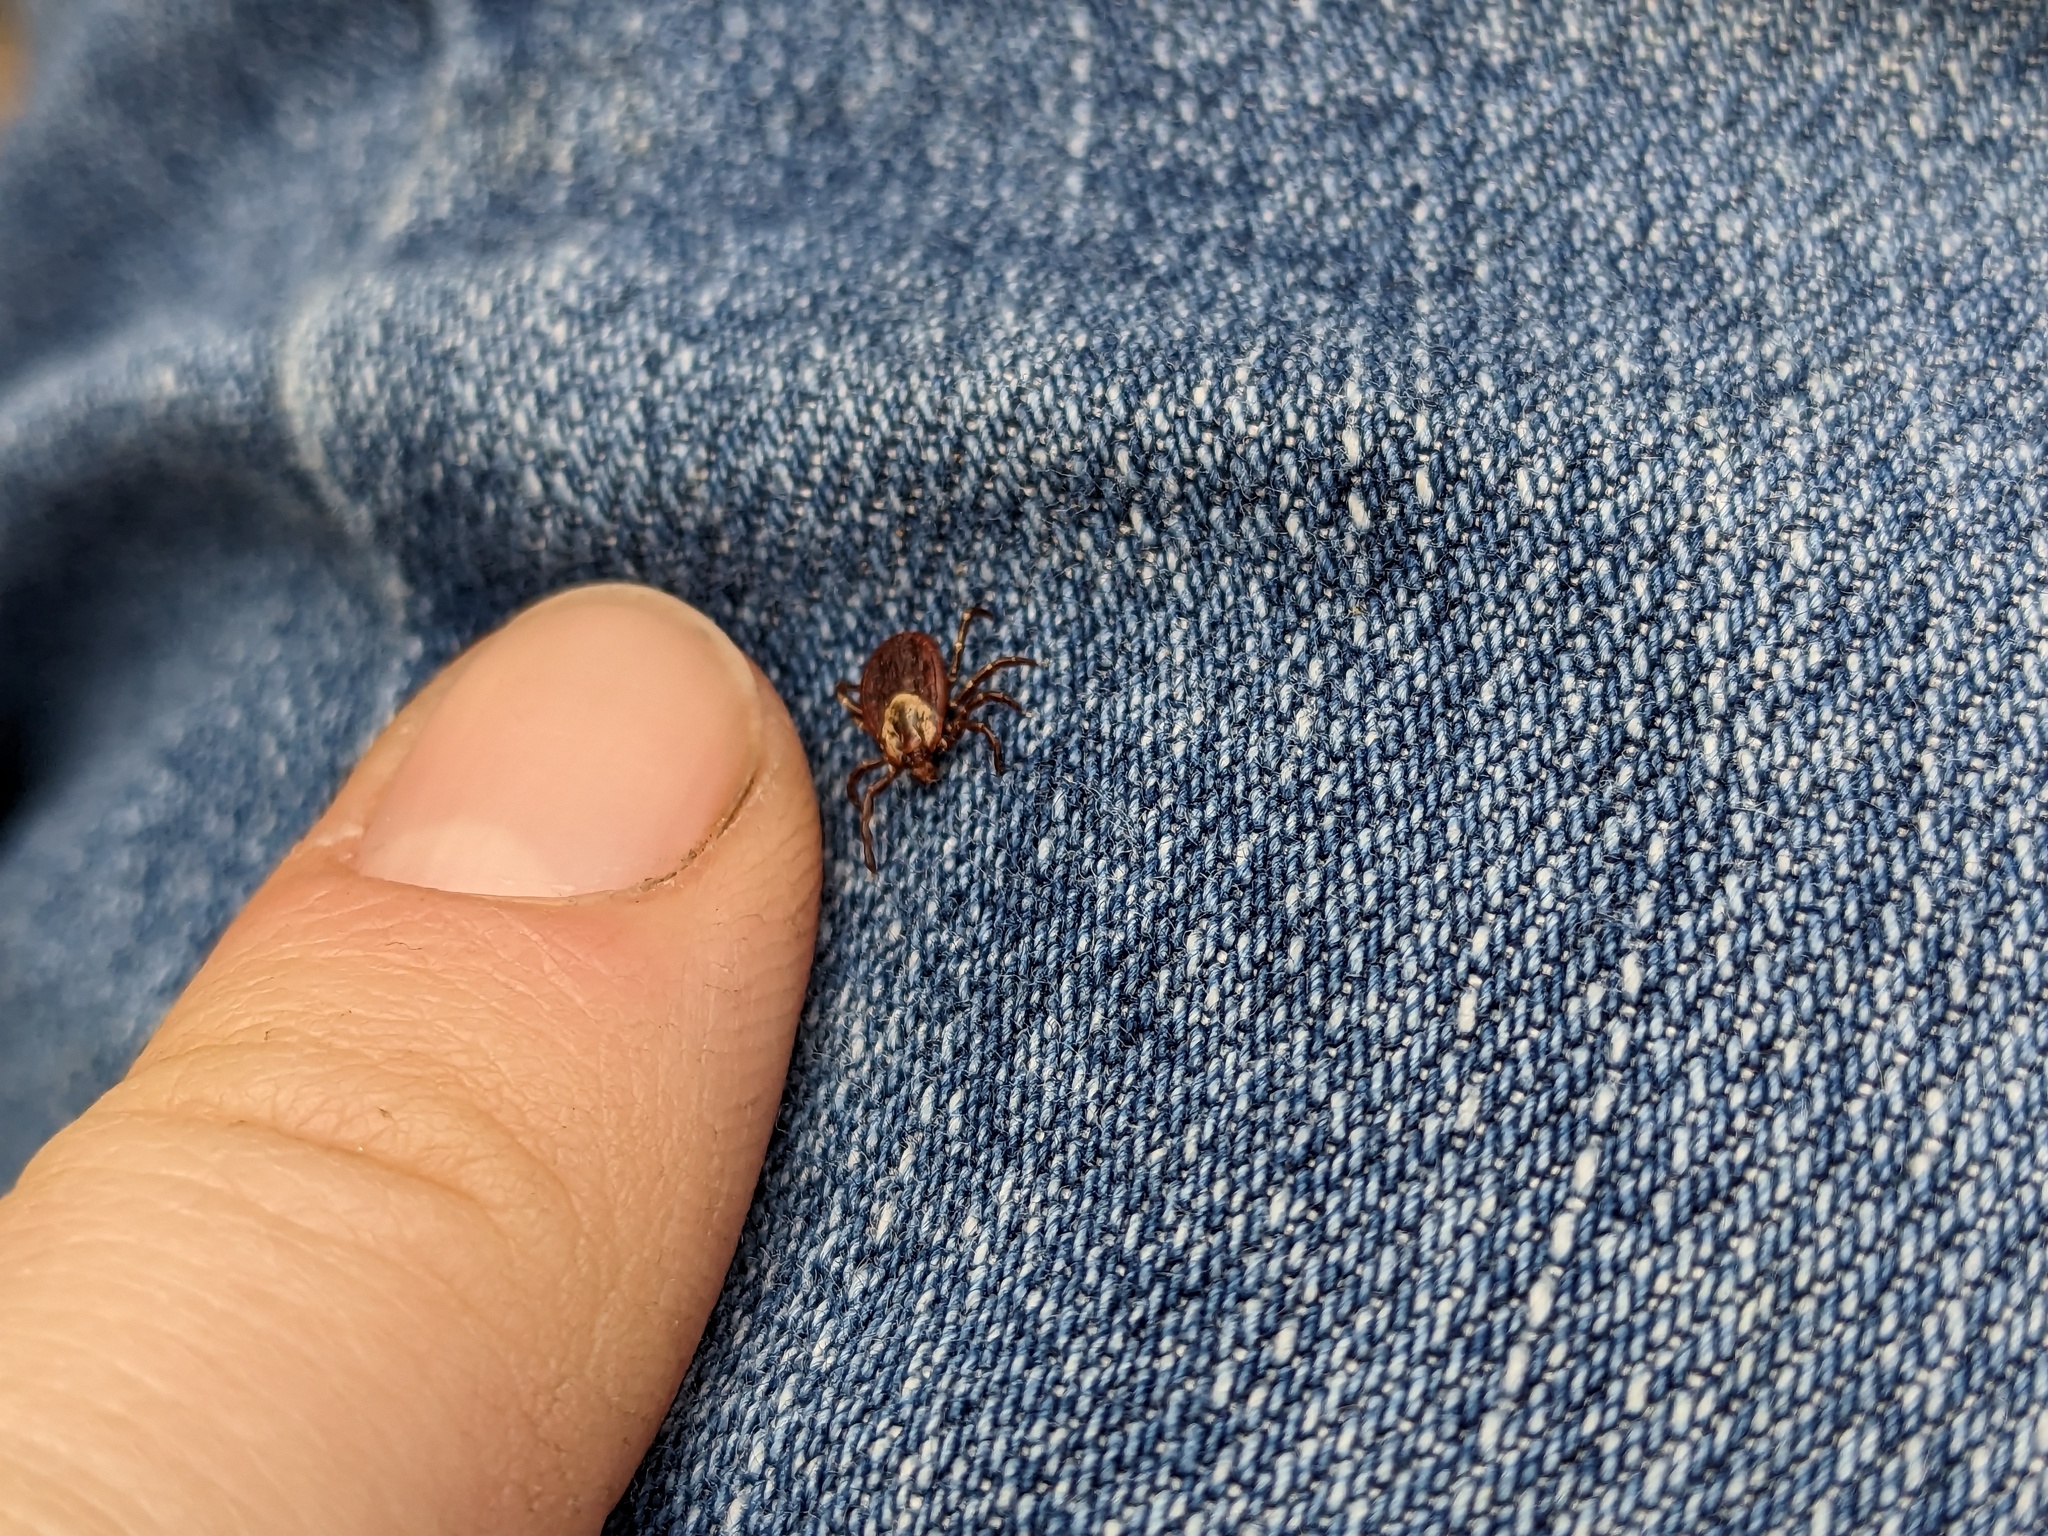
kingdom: Animalia
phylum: Arthropoda
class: Arachnida
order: Ixodida
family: Ixodidae
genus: Dermacentor
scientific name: Dermacentor variabilis
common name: American dog tick
